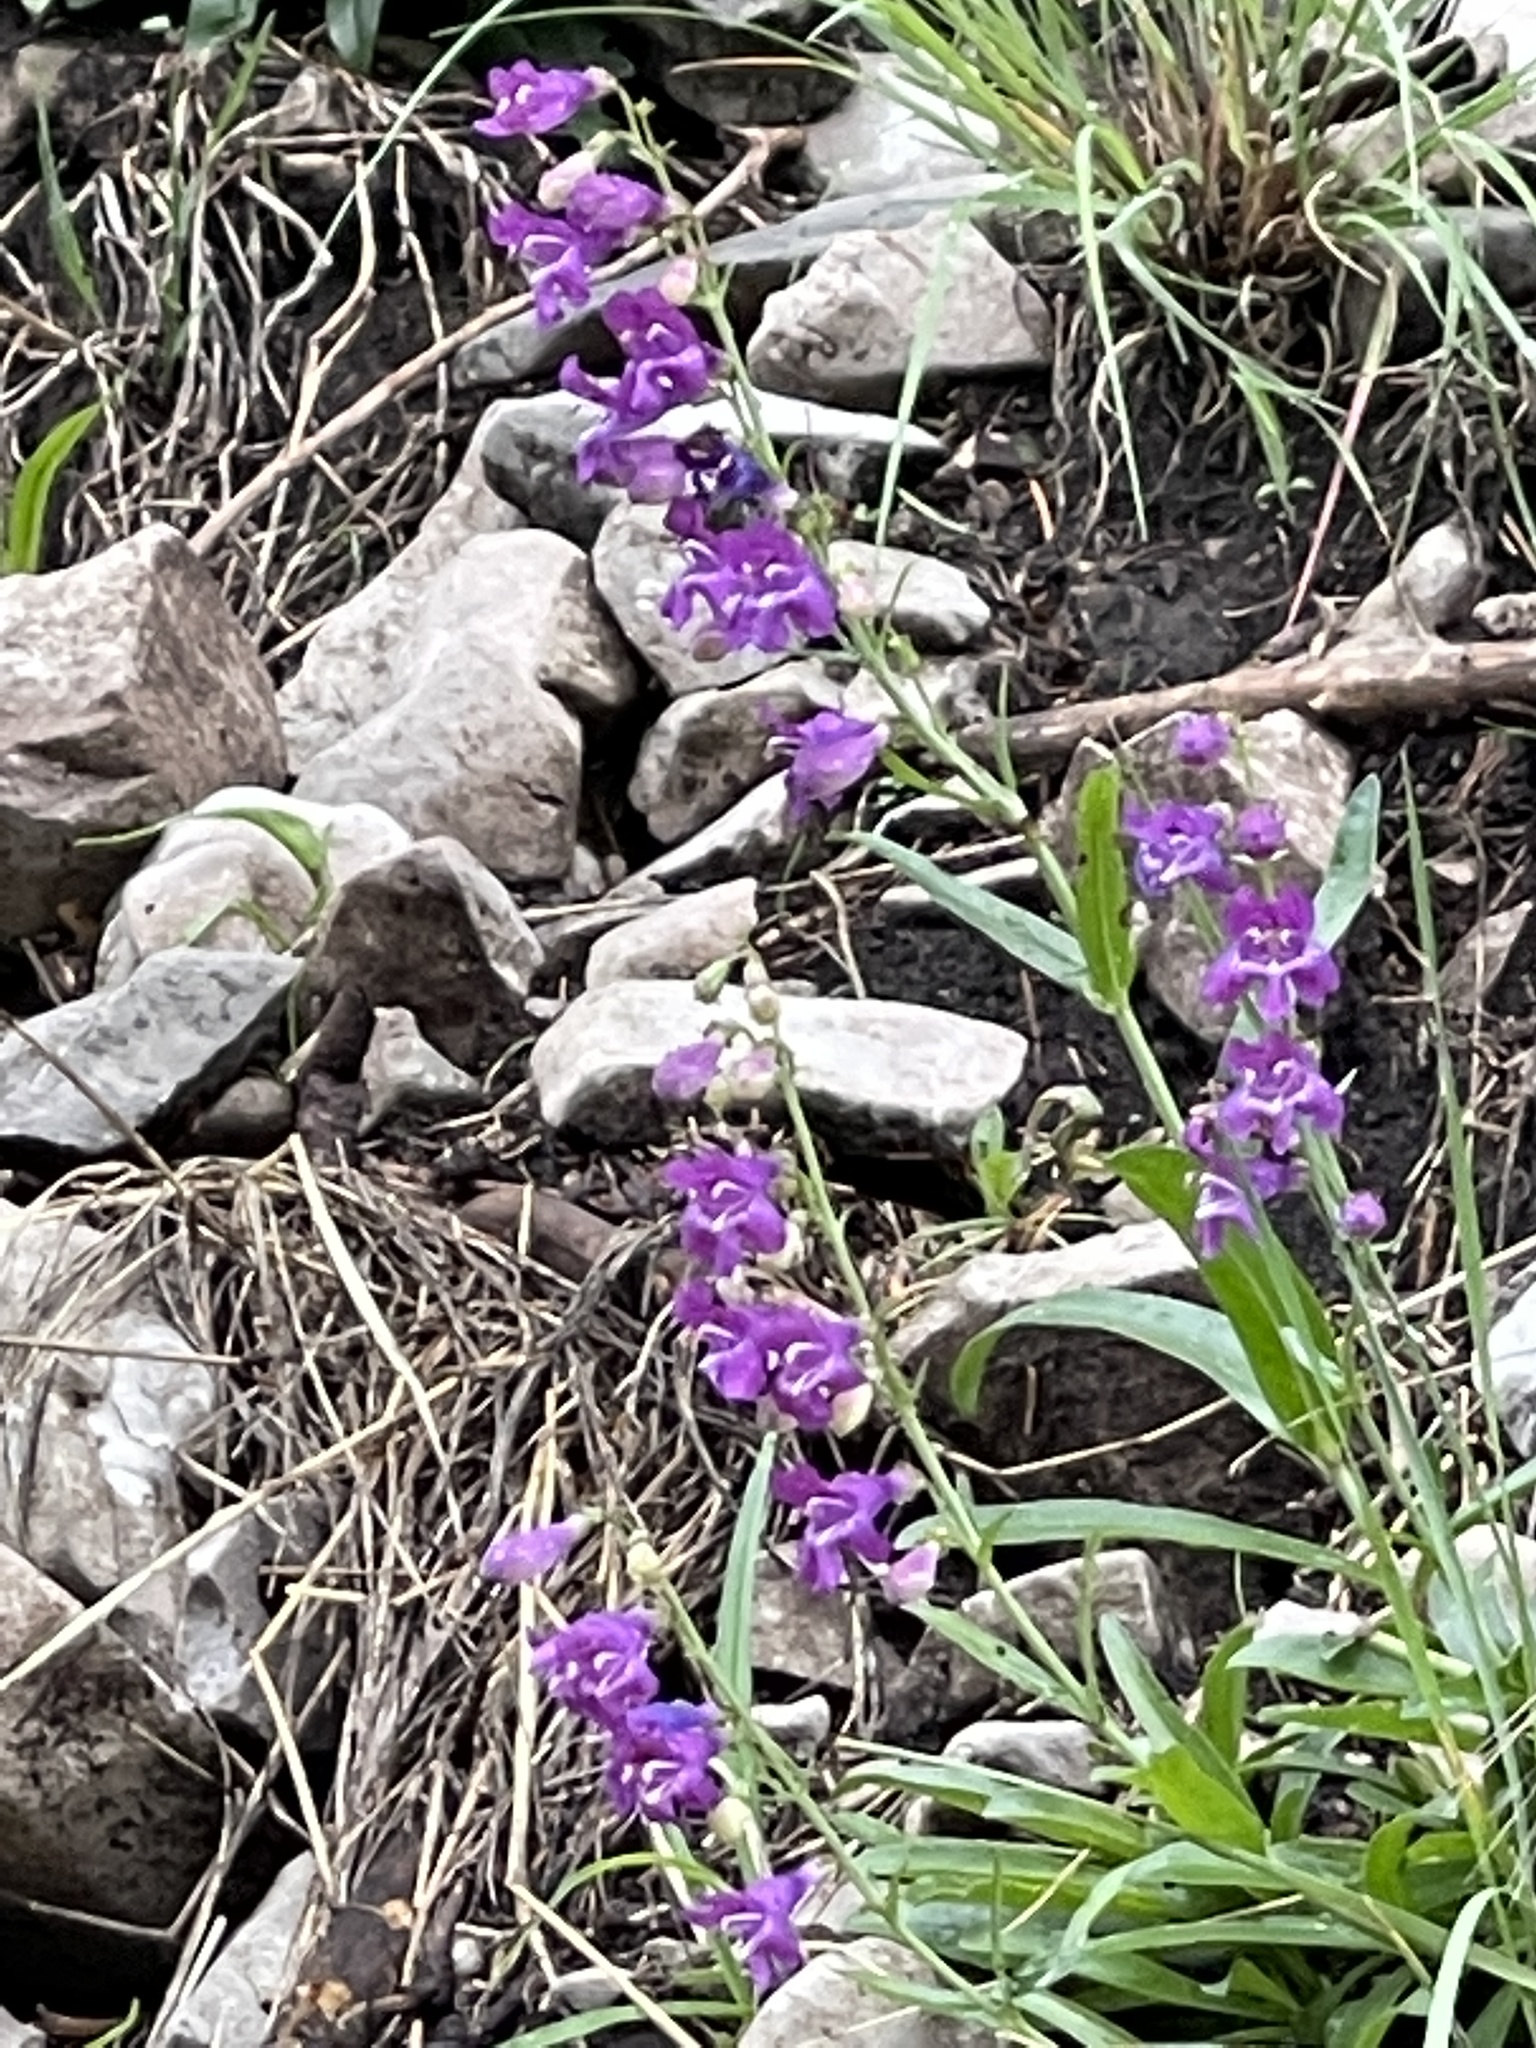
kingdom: Plantae
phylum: Tracheophyta
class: Magnoliopsida
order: Lamiales
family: Plantaginaceae
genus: Penstemon
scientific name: Penstemon neomexicanus
